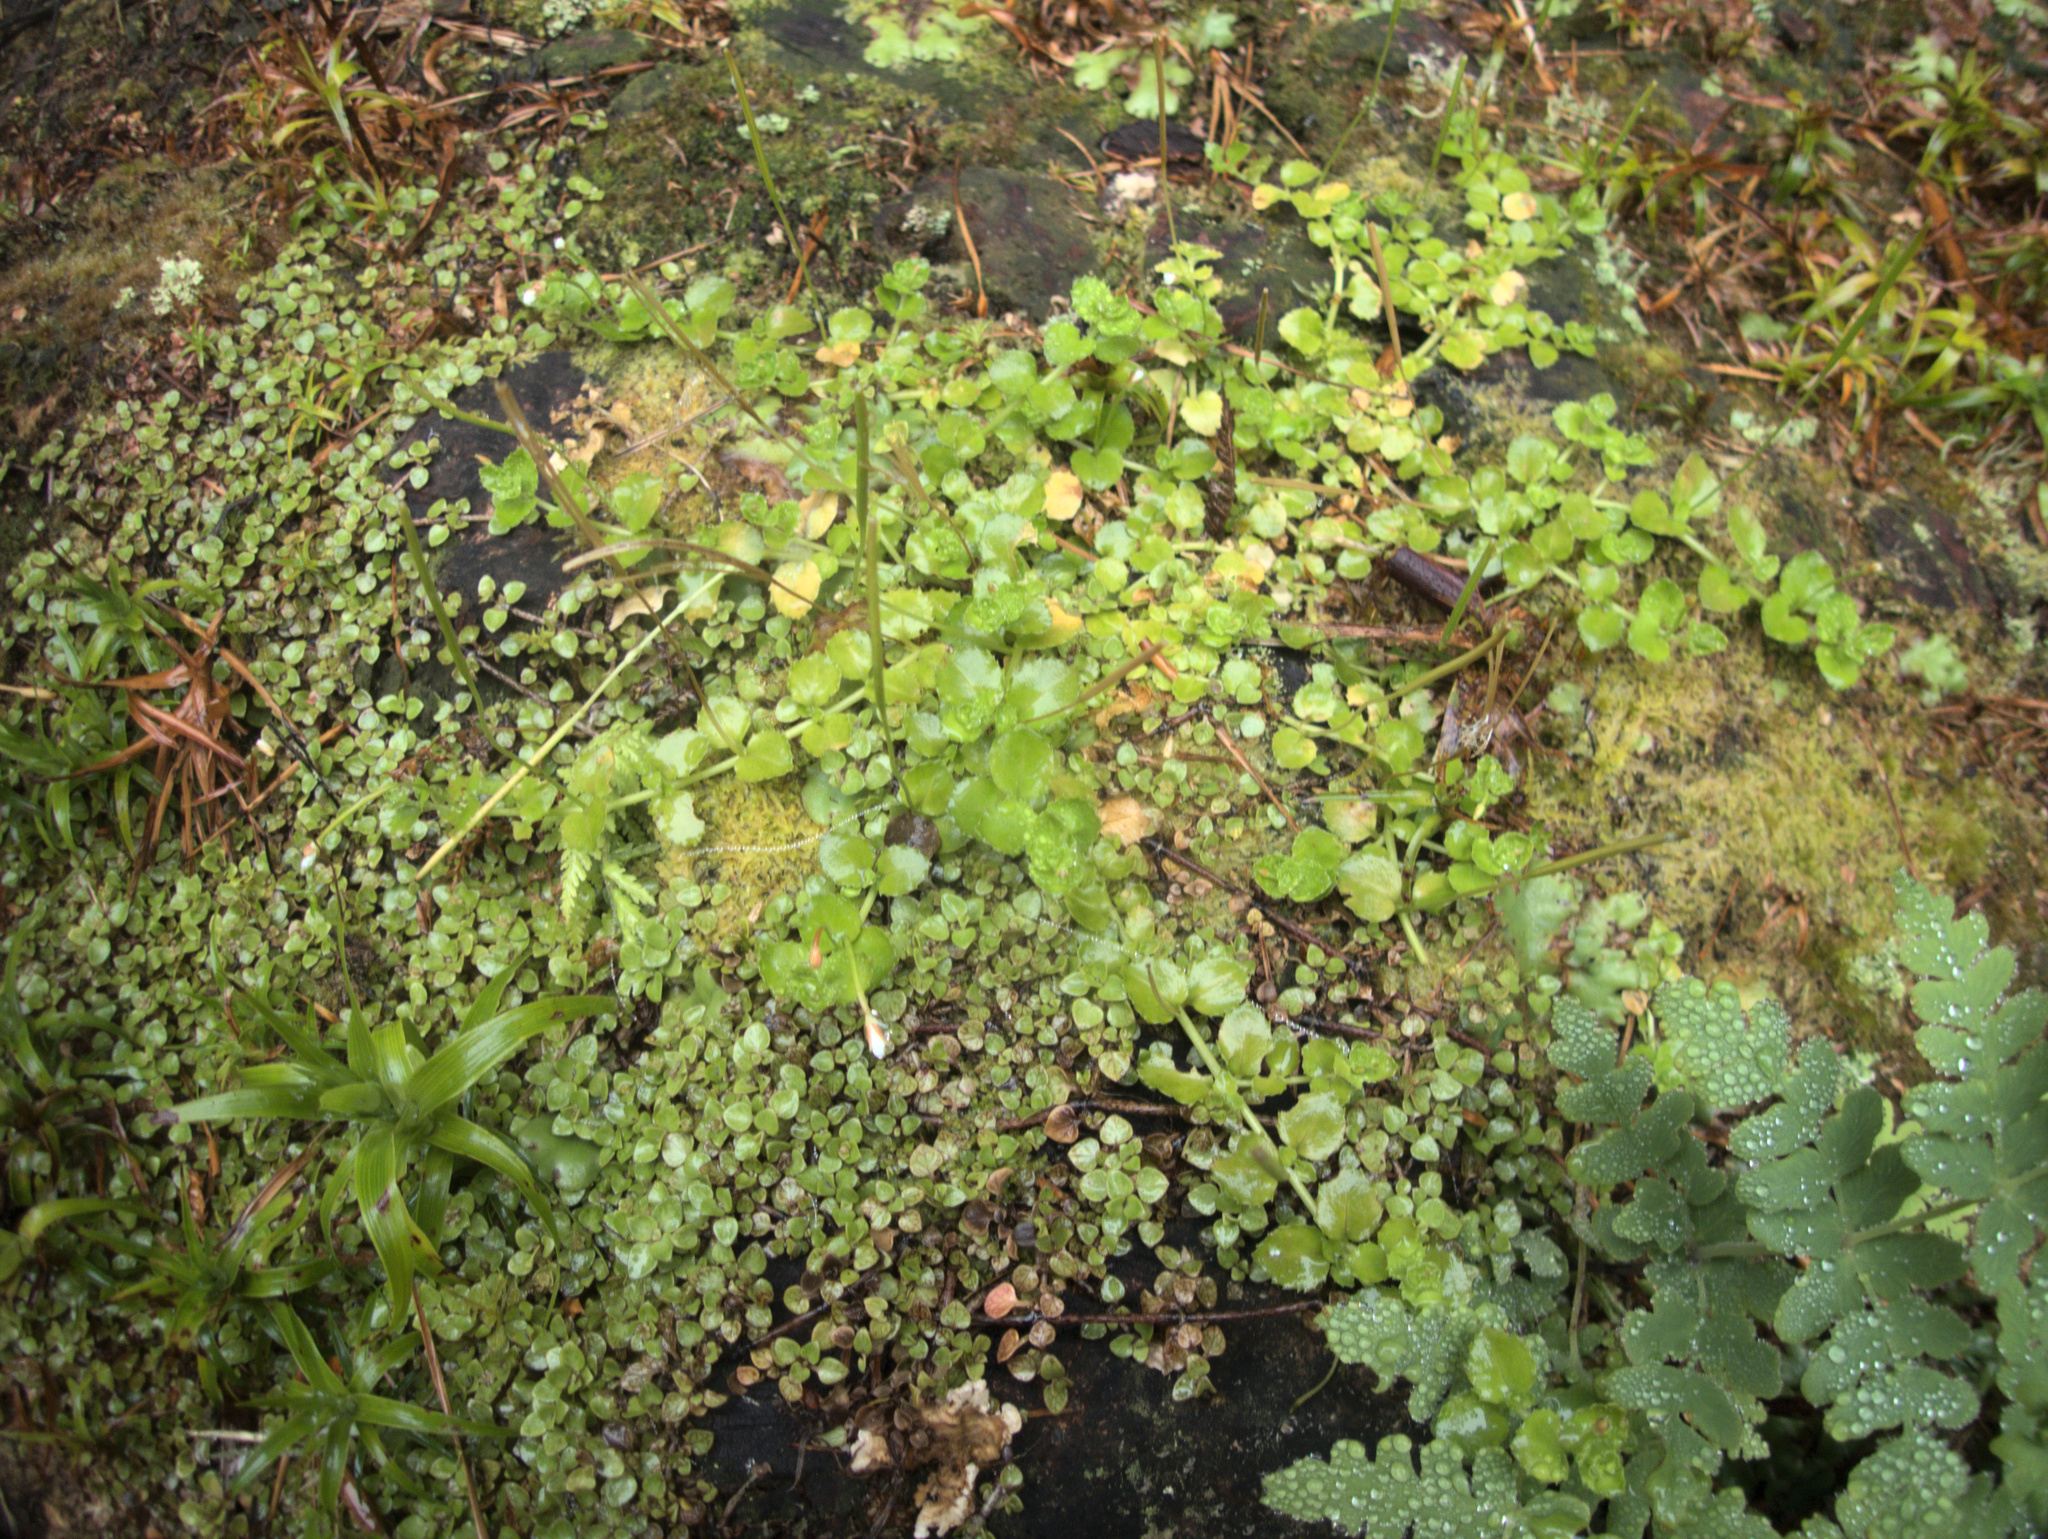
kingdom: Animalia
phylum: Arthropoda
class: Insecta
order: Lepidoptera
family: Geometridae
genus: Austrocidaria
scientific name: Austrocidaria similata
